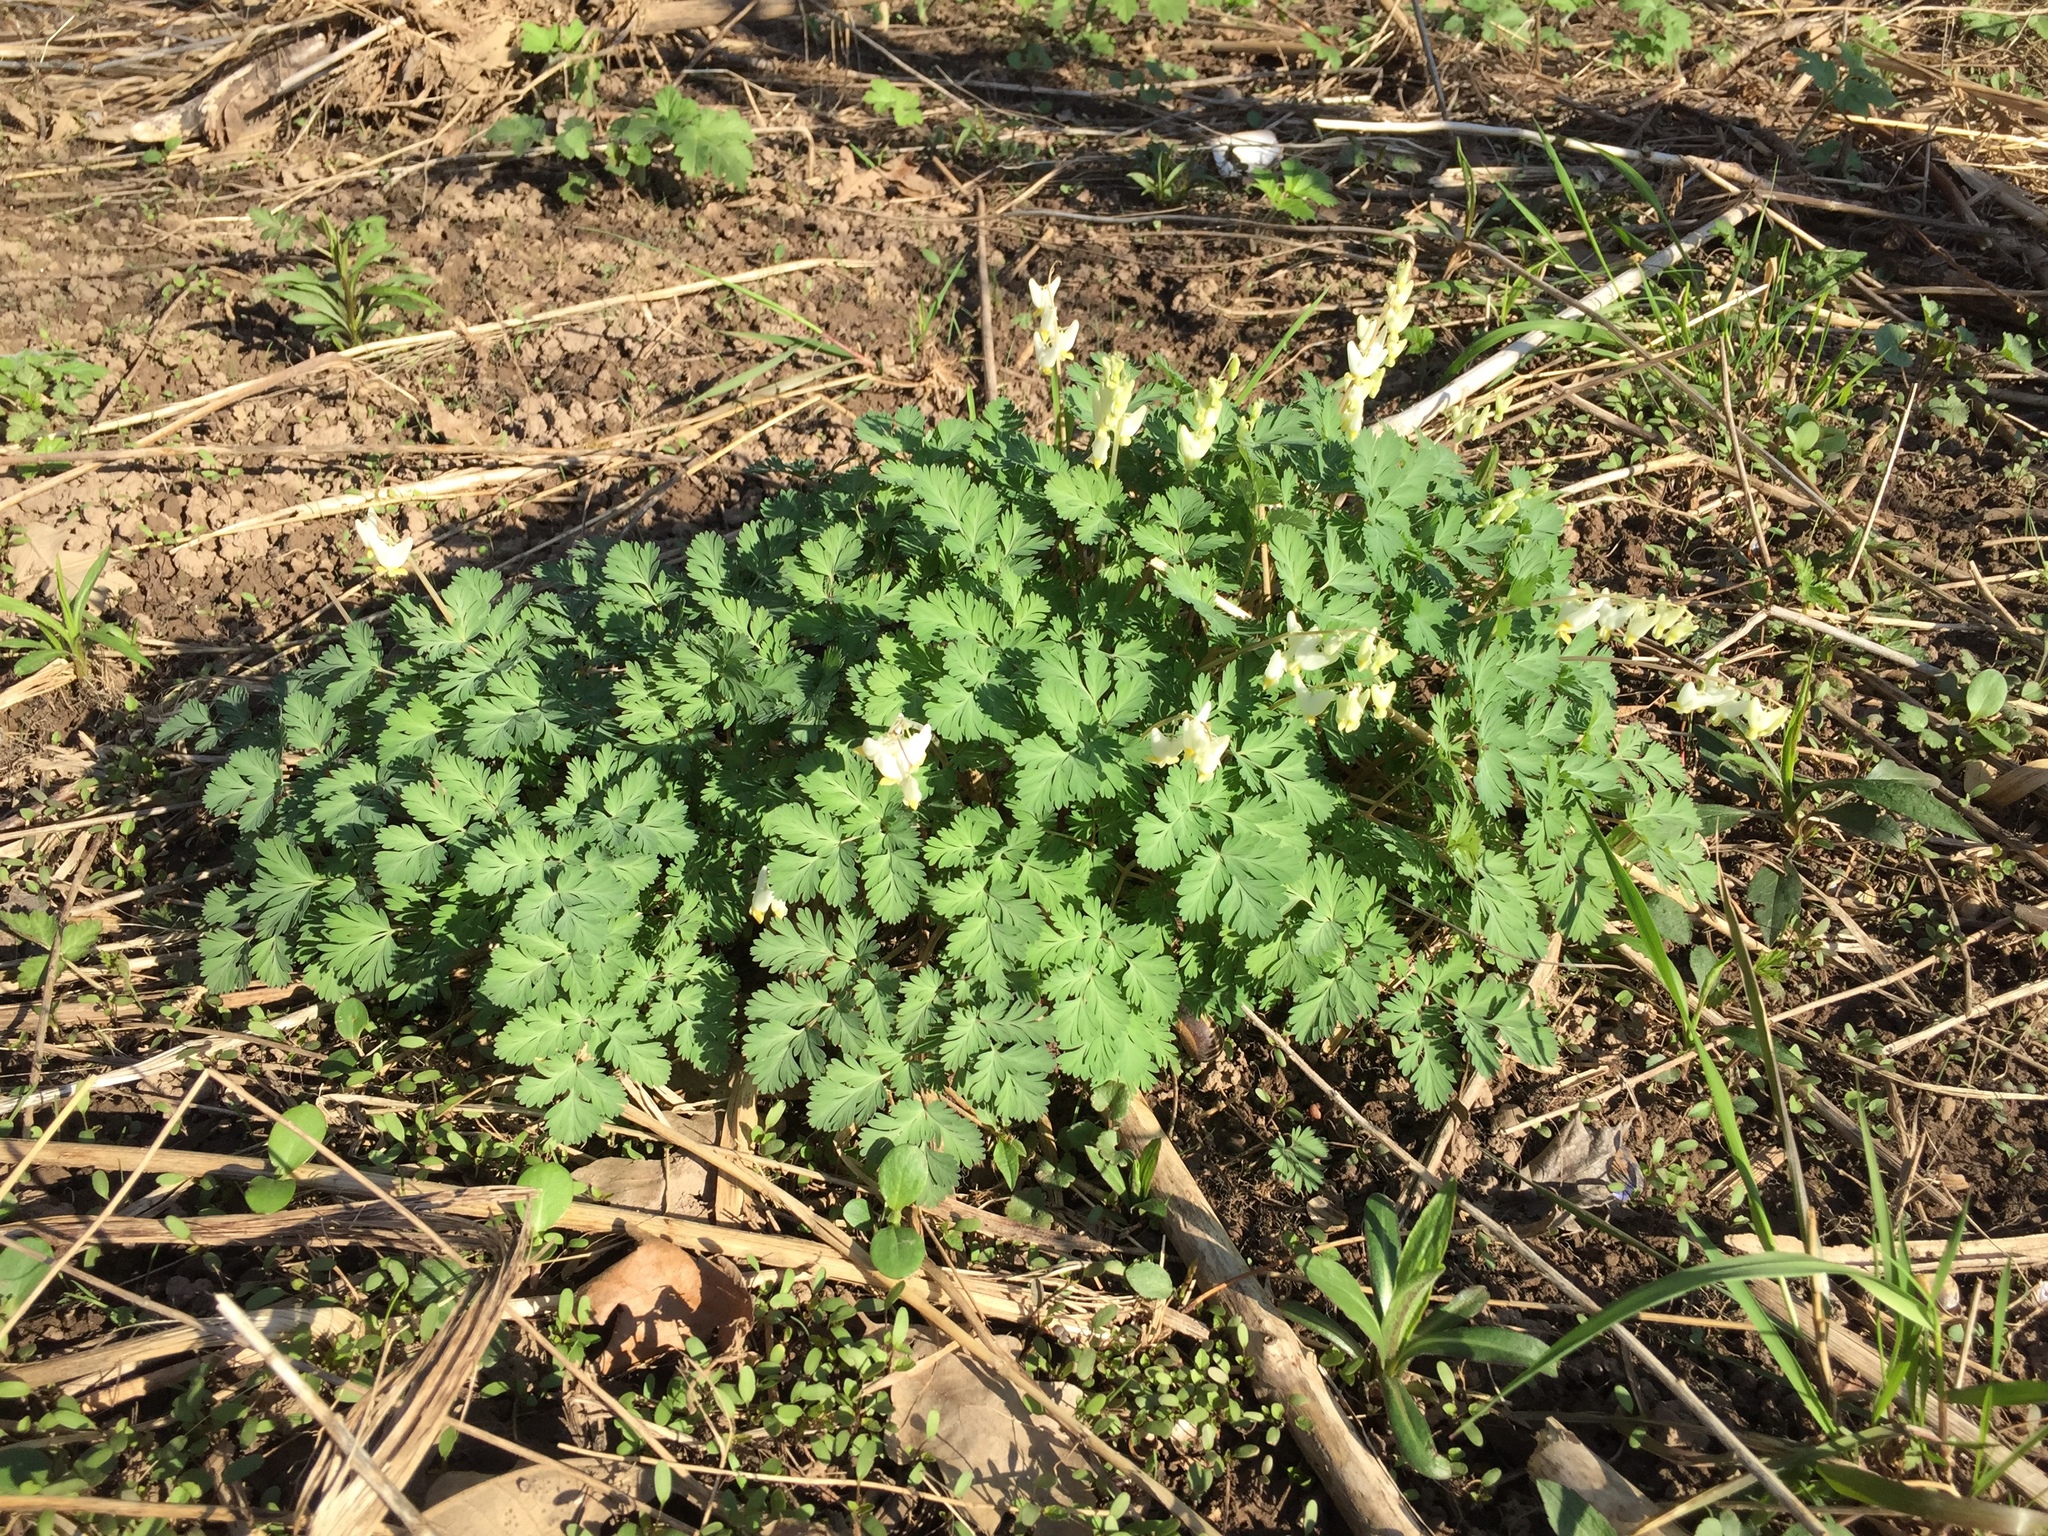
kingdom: Plantae
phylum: Tracheophyta
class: Magnoliopsida
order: Ranunculales
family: Papaveraceae
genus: Dicentra
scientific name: Dicentra cucullaria
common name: Dutchman's breeches
